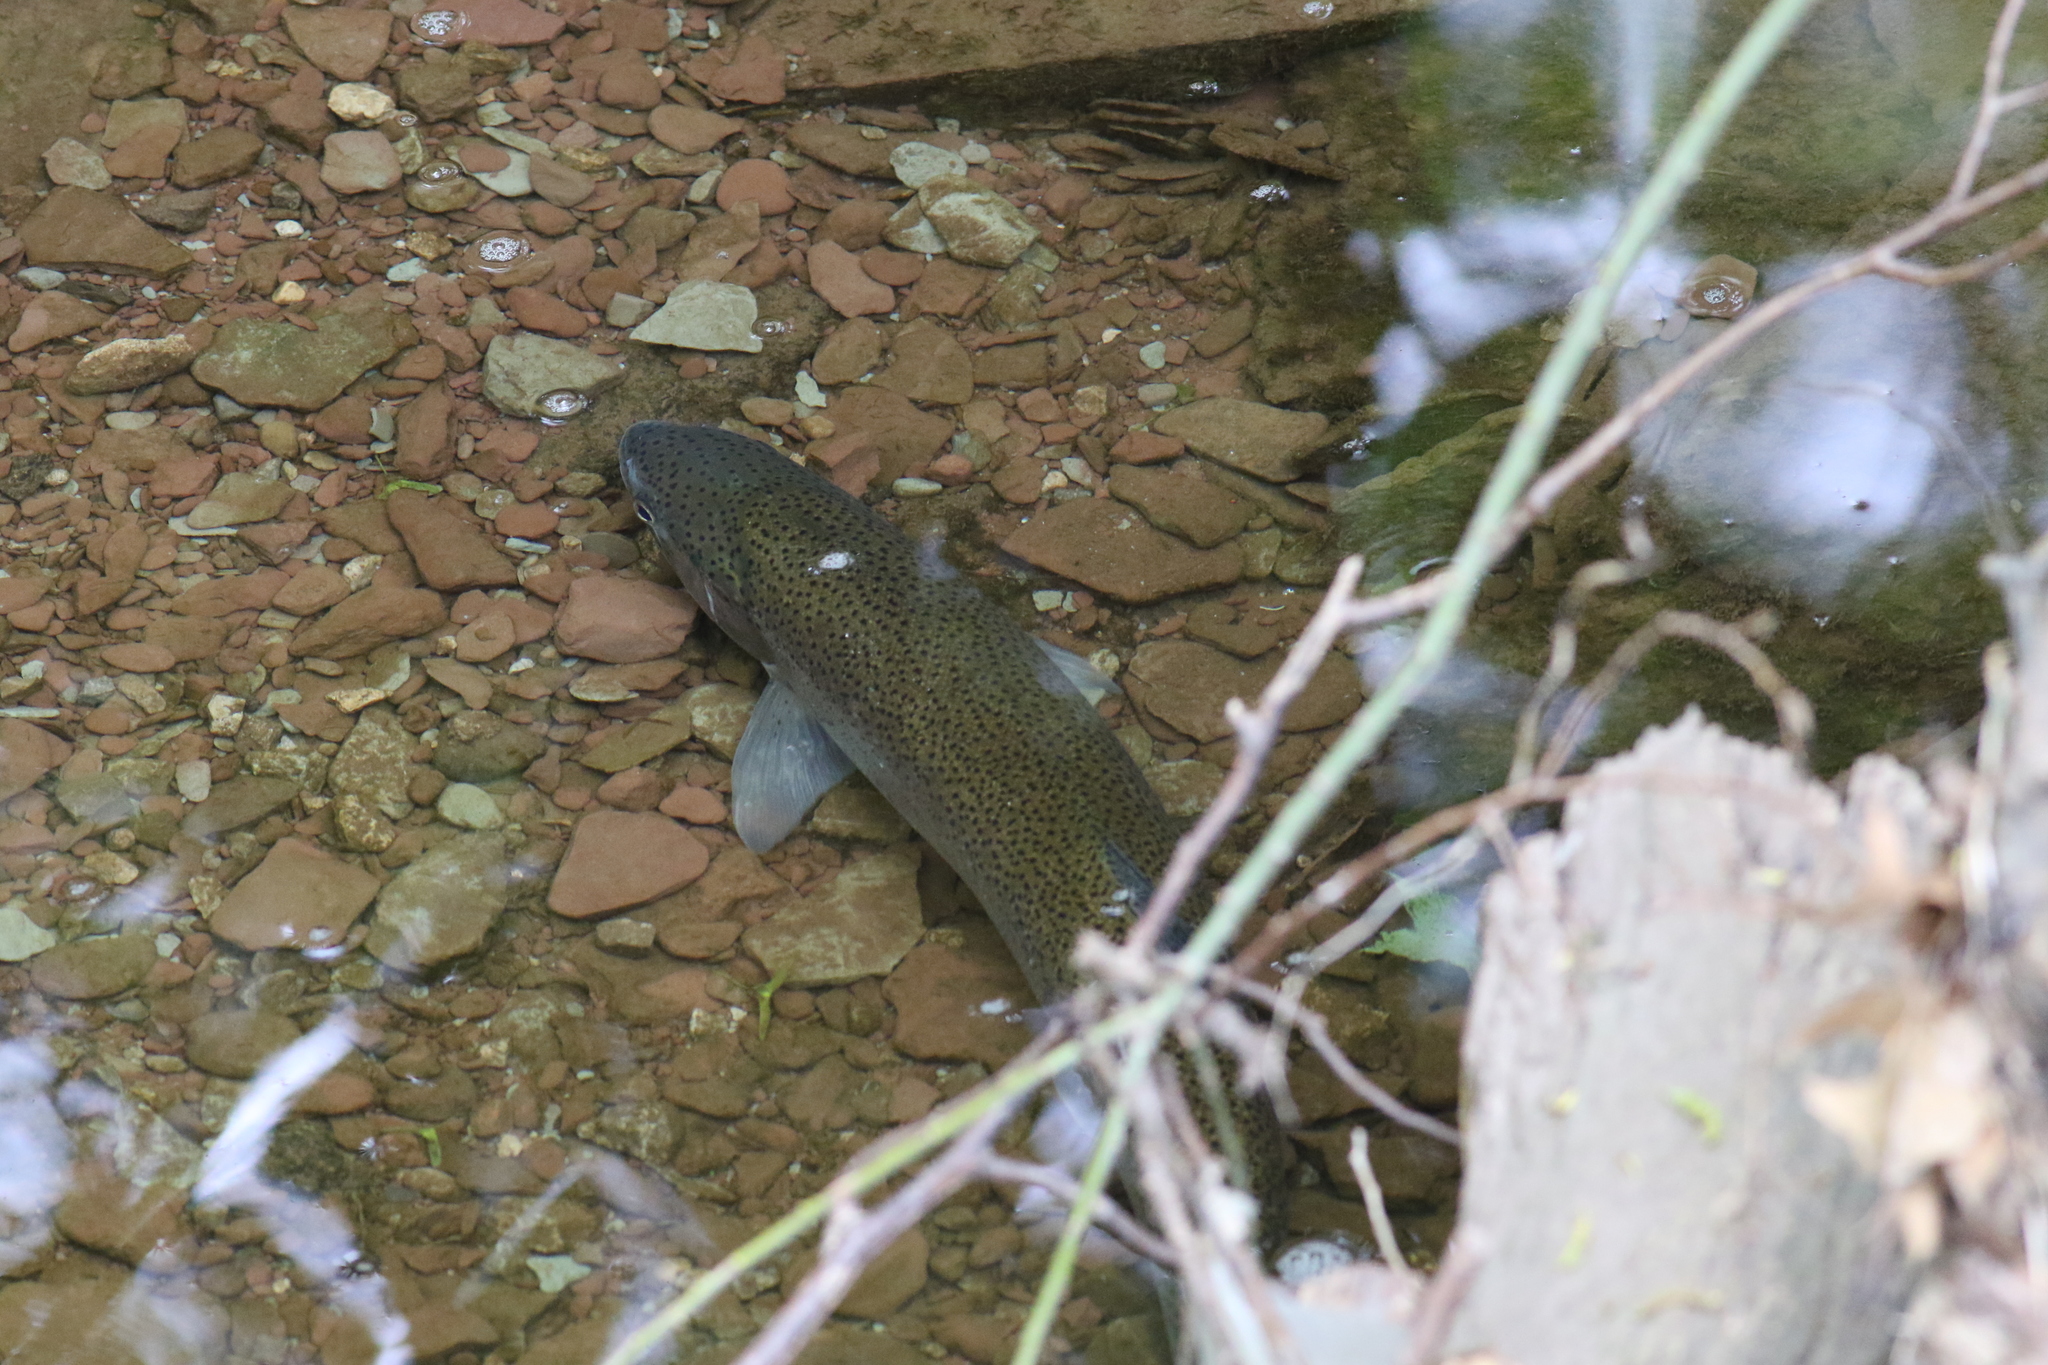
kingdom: Animalia
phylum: Chordata
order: Salmoniformes
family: Salmonidae
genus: Oncorhynchus
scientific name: Oncorhynchus mykiss
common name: Rainbow trout
